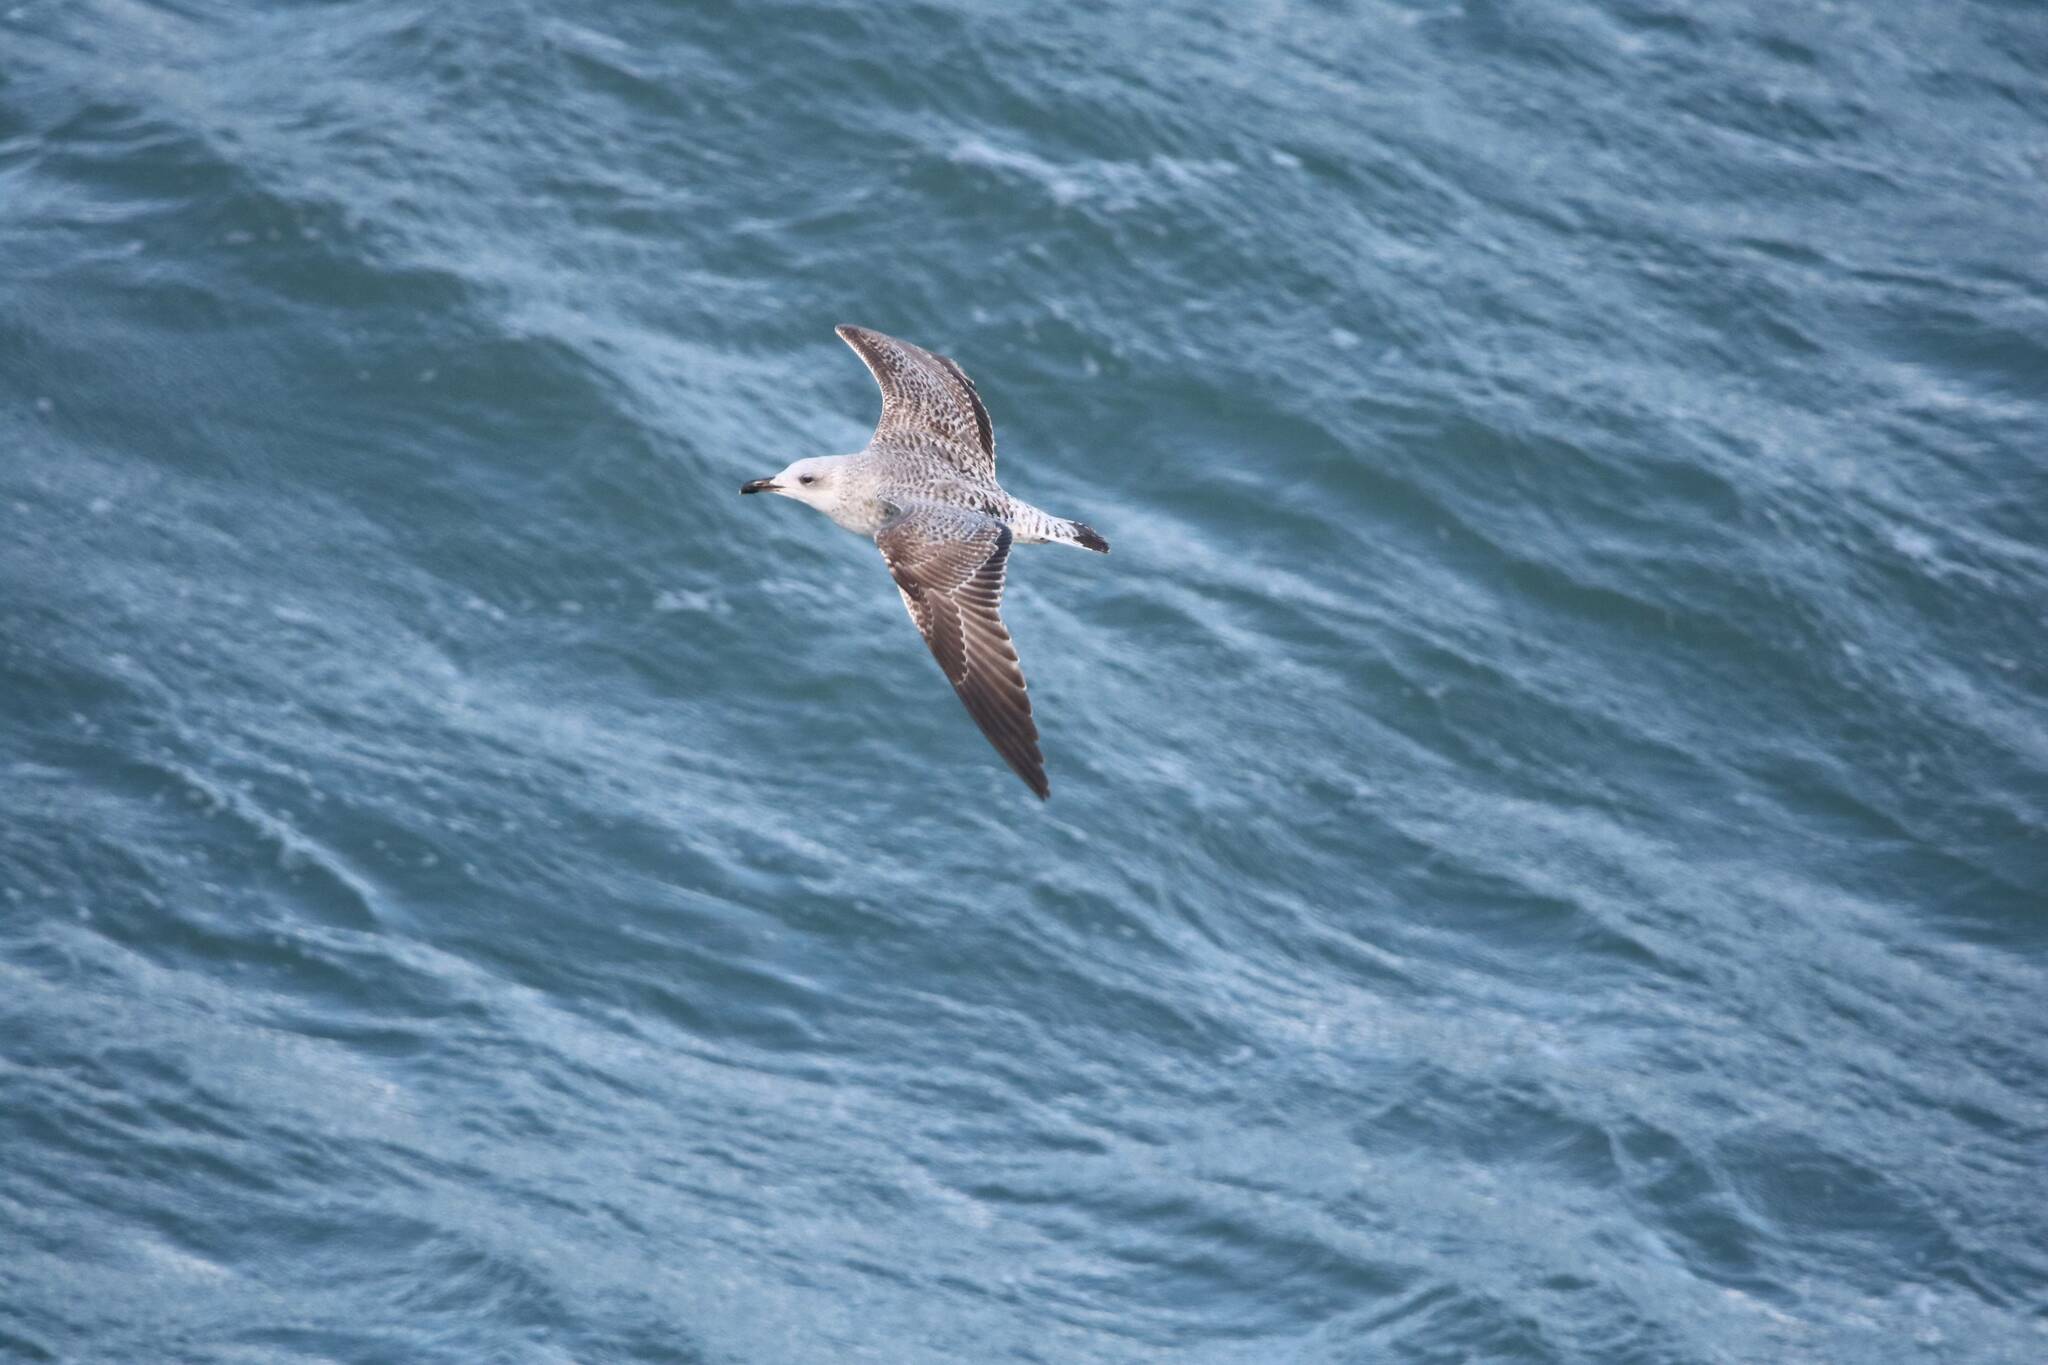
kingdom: Animalia
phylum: Chordata
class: Aves
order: Charadriiformes
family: Laridae
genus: Larus
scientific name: Larus michahellis
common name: Yellow-legged gull
